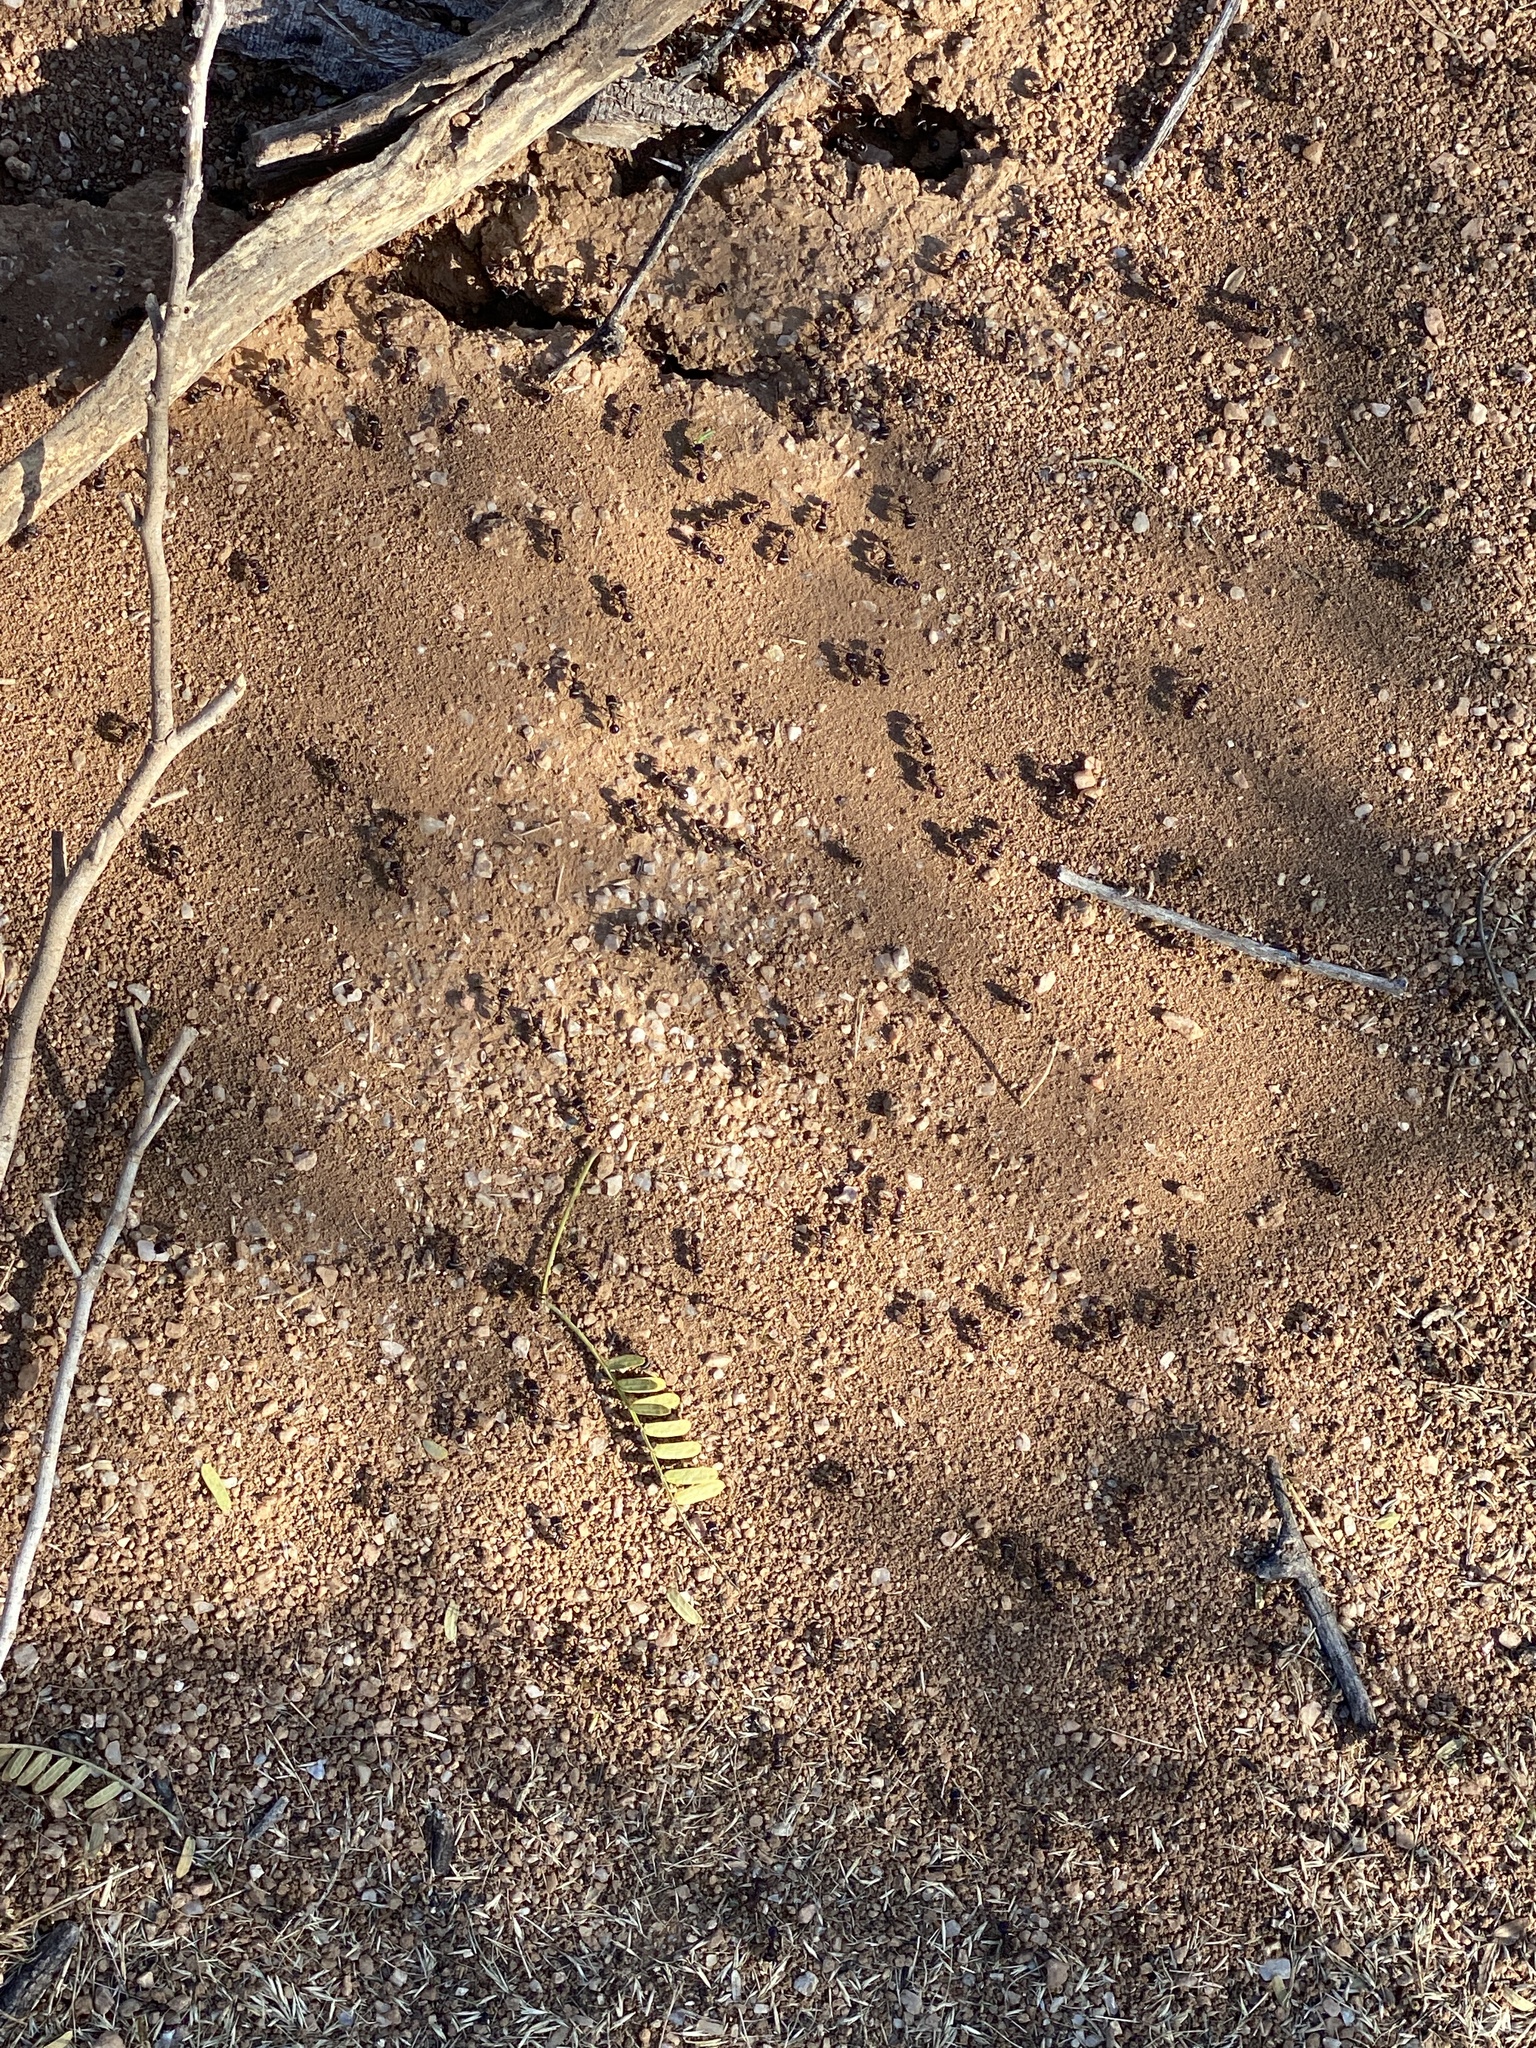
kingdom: Animalia
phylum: Arthropoda
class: Insecta
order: Hymenoptera
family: Formicidae
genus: Pogonomyrmex
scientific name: Pogonomyrmex rugosus
